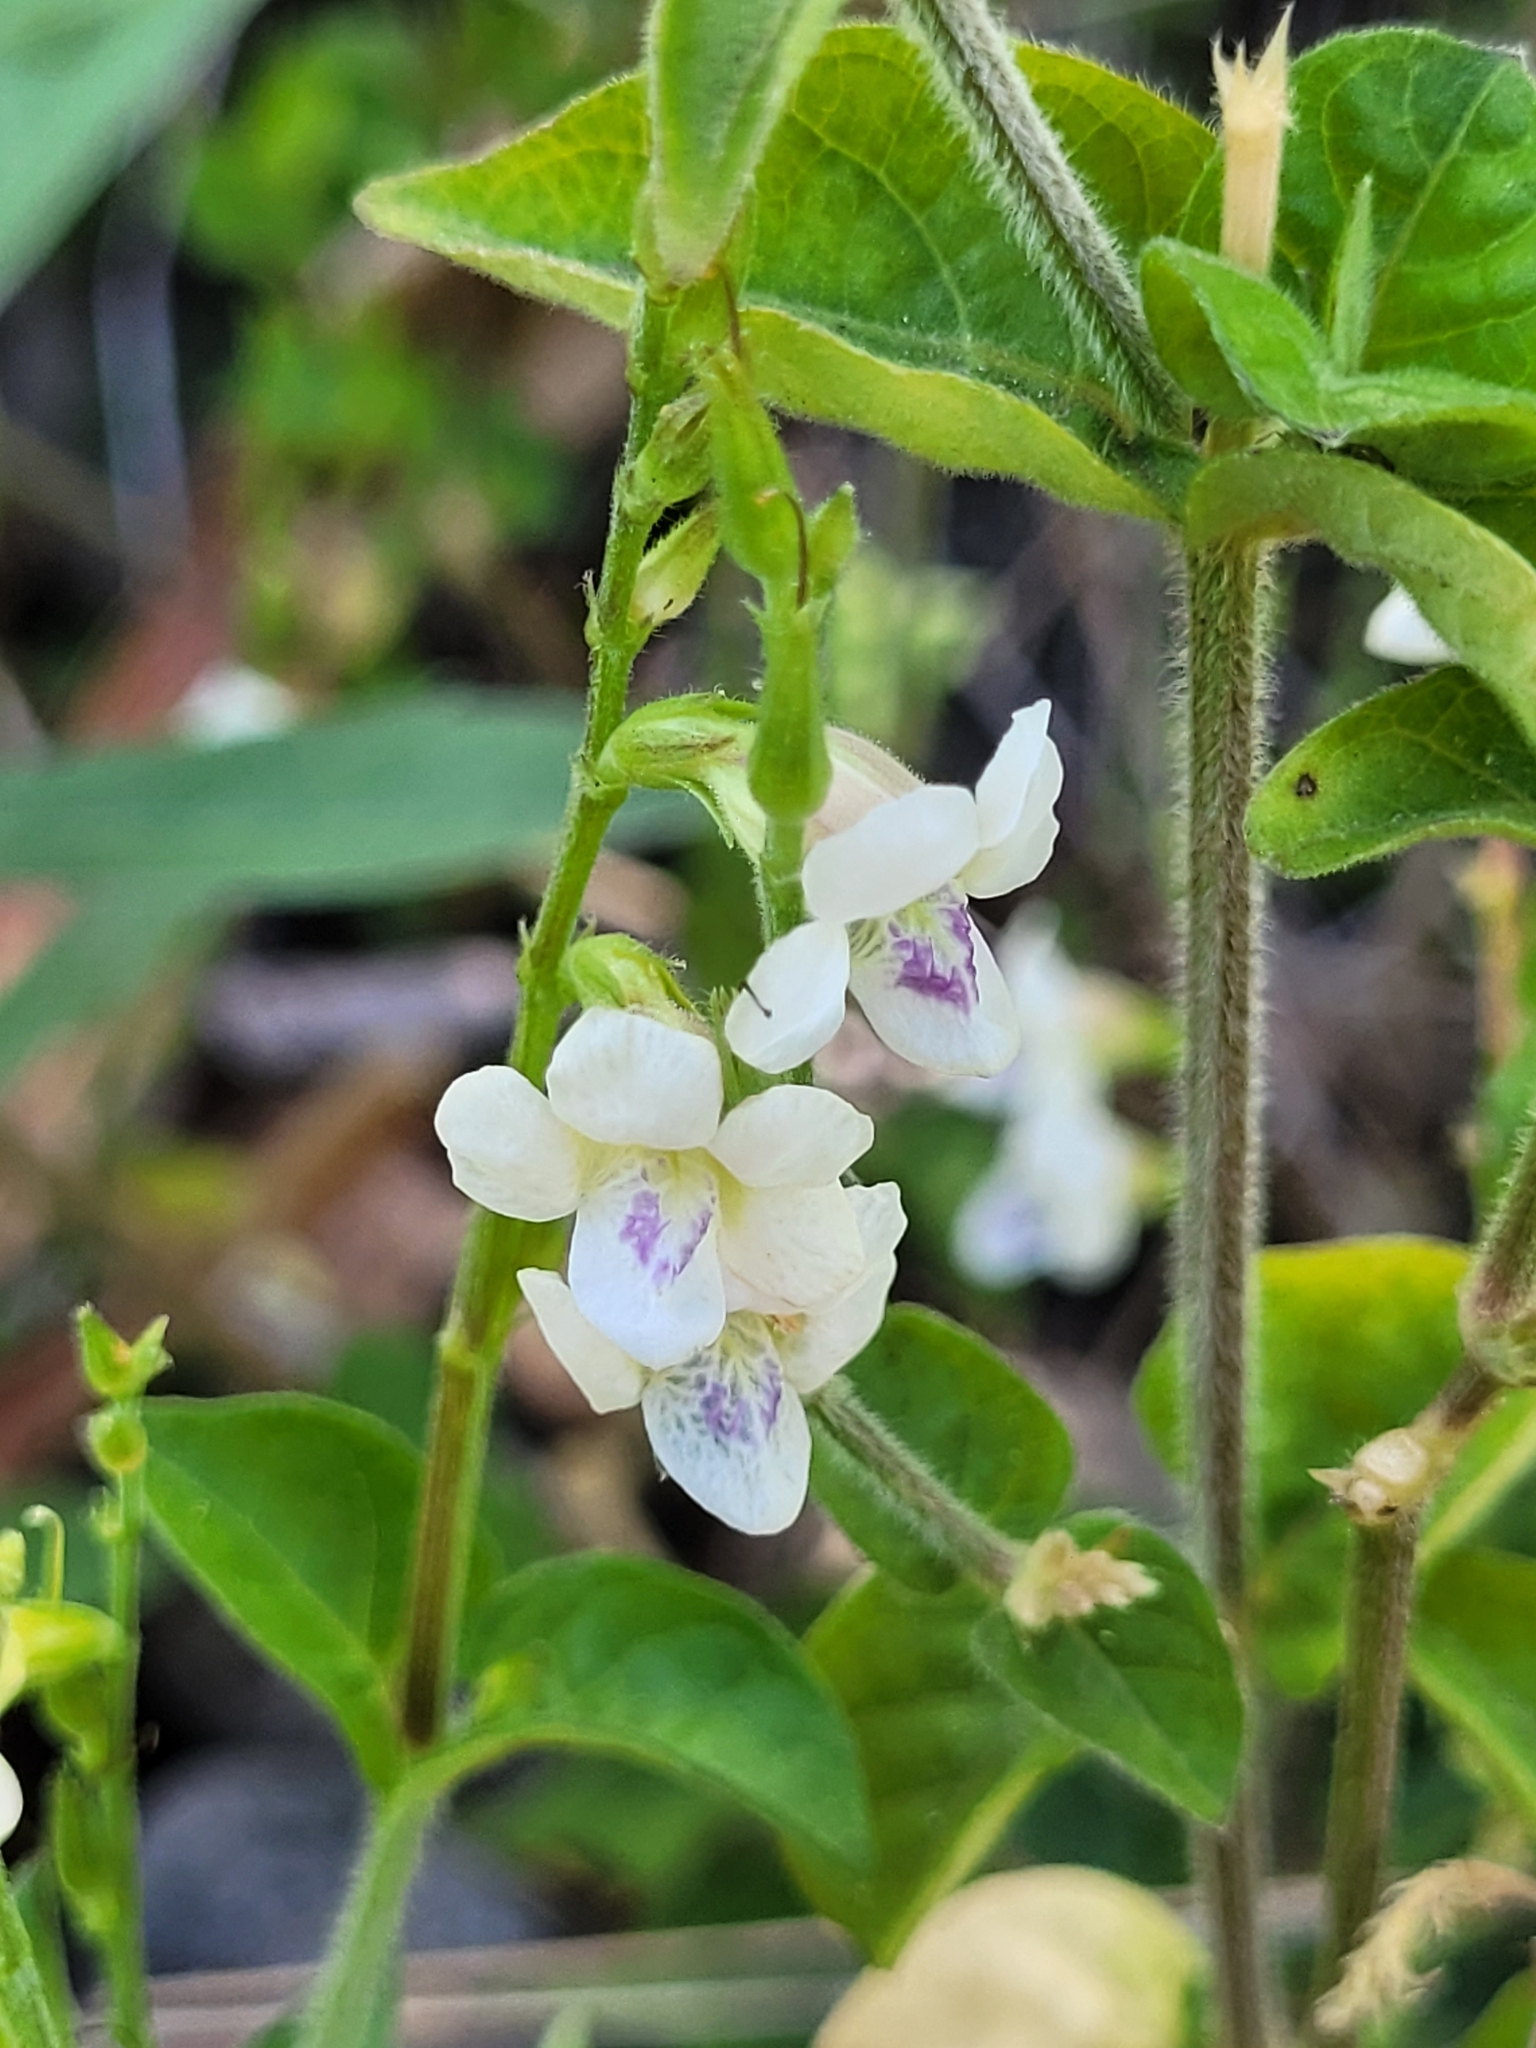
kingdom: Plantae
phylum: Tracheophyta
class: Magnoliopsida
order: Lamiales
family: Acanthaceae
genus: Asystasia
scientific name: Asystasia intrusa
